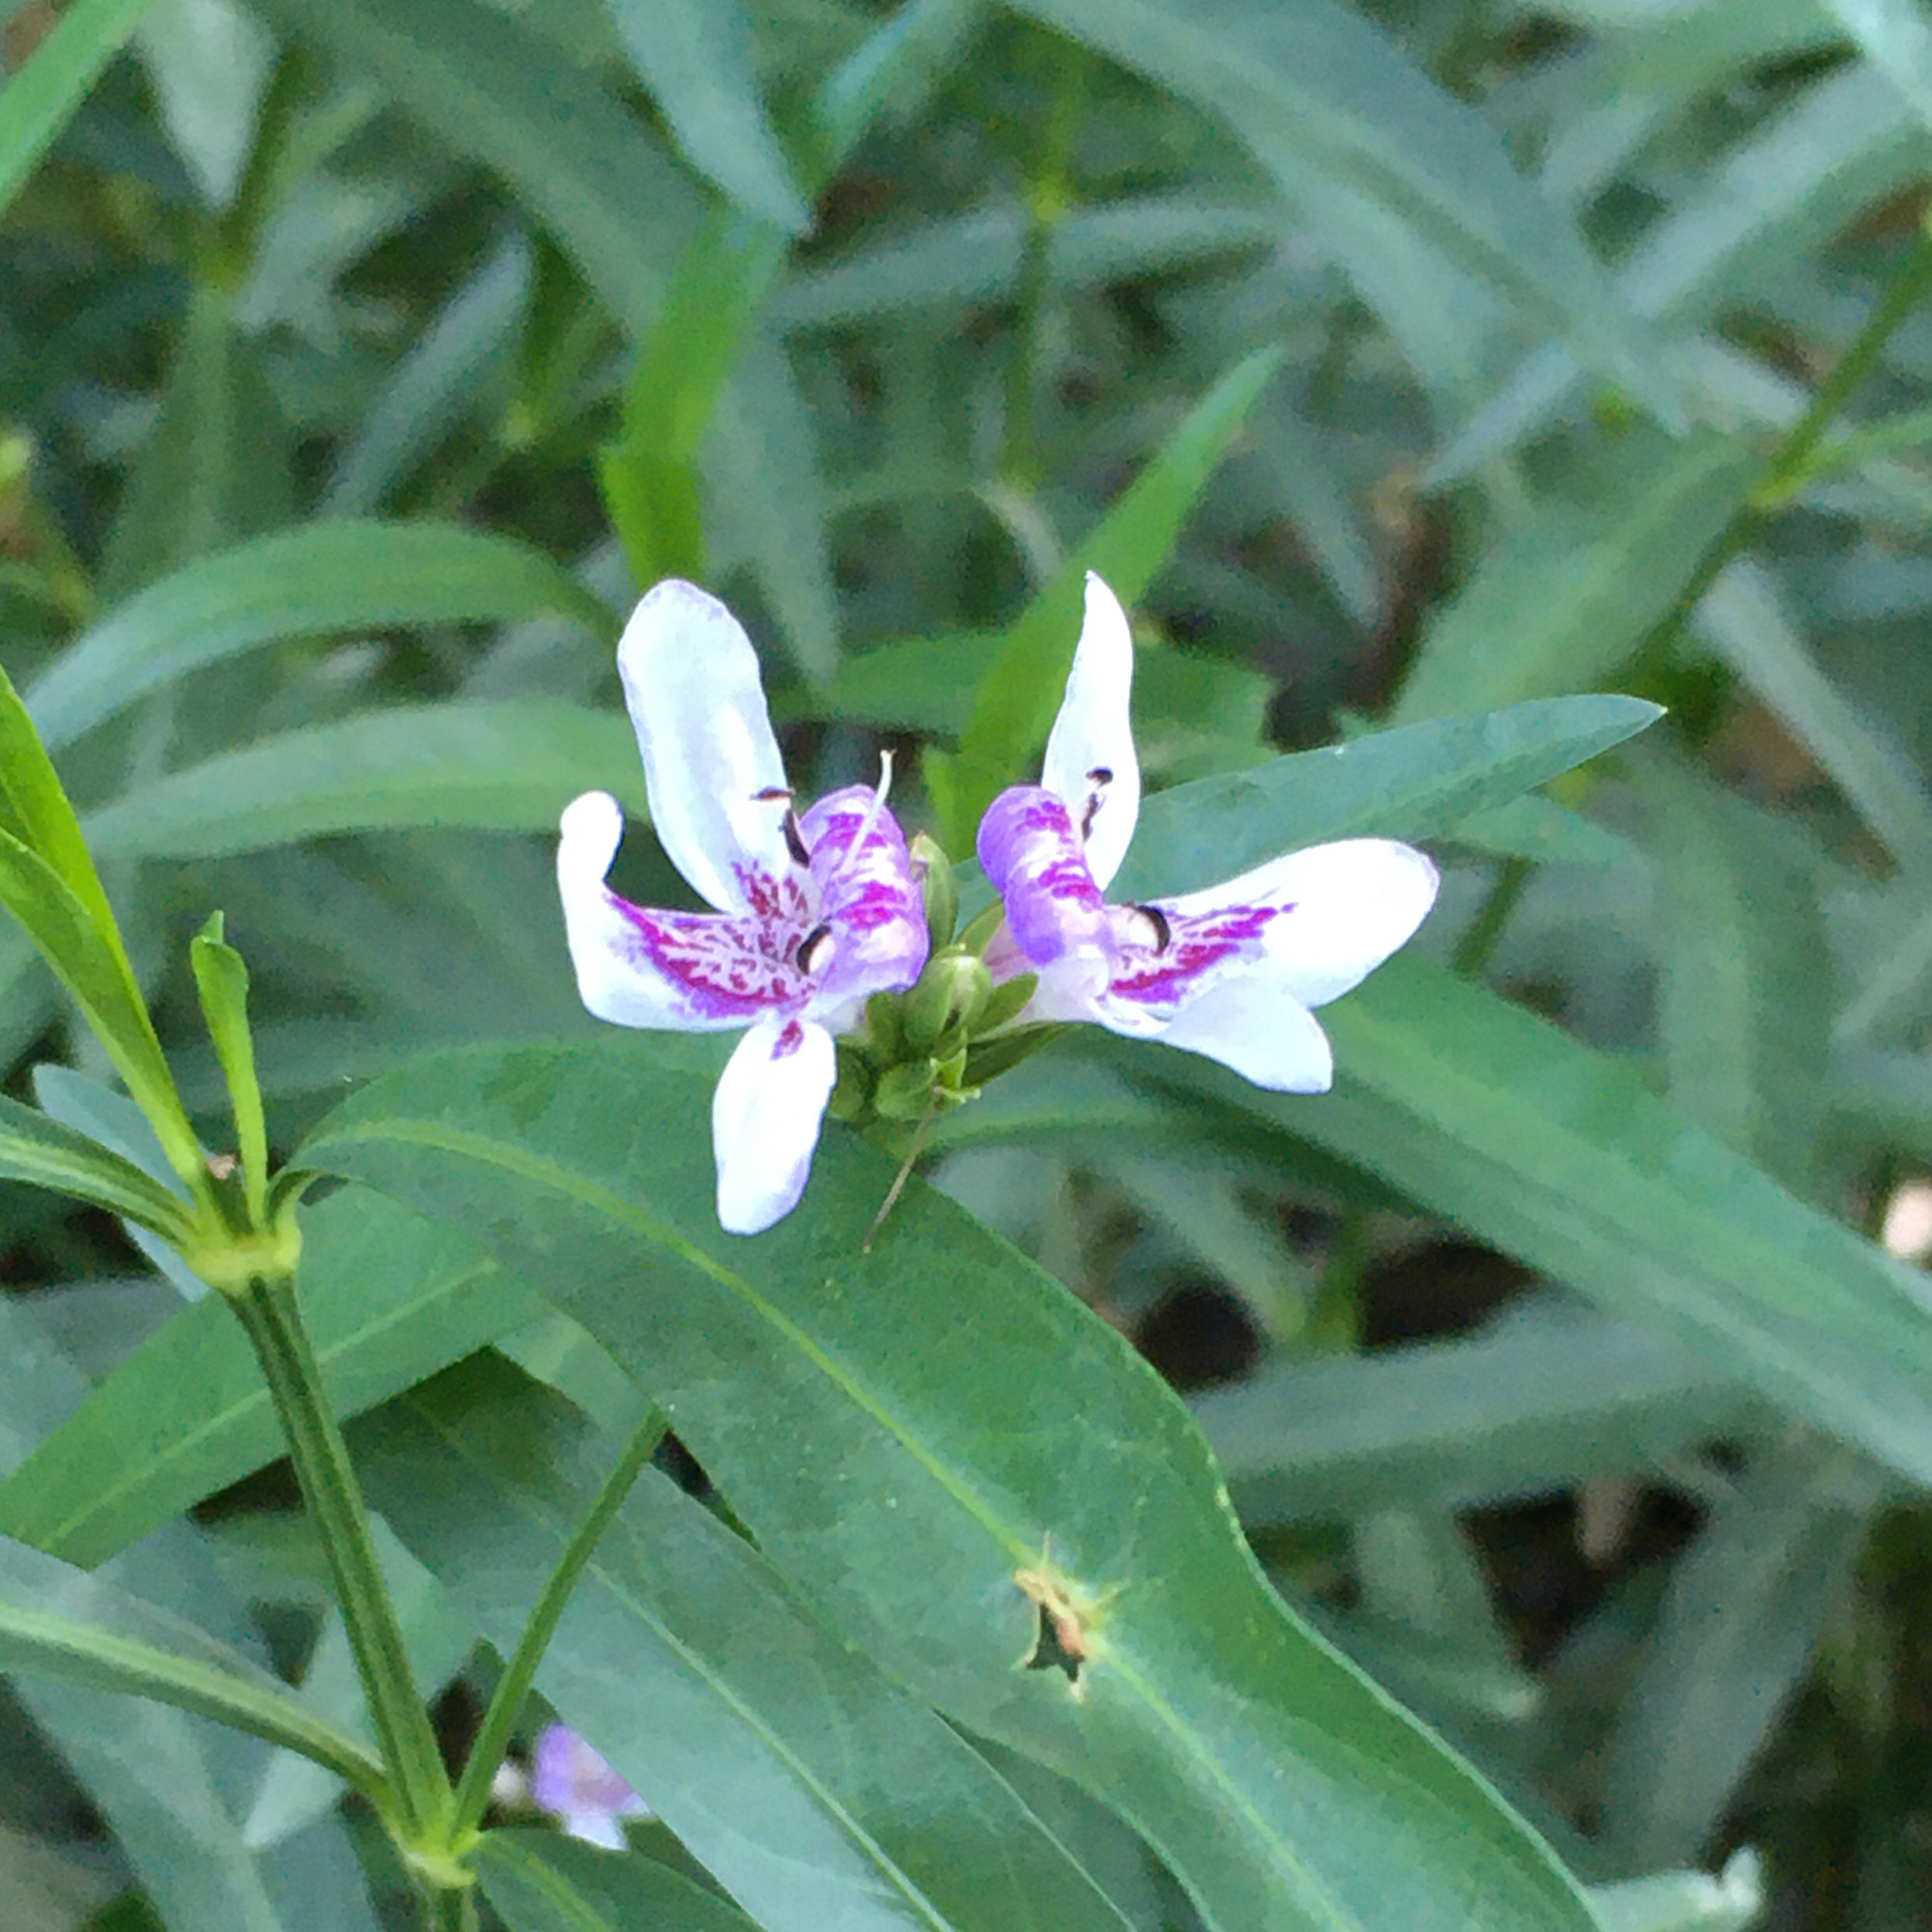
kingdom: Plantae
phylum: Tracheophyta
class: Magnoliopsida
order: Lamiales
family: Acanthaceae
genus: Dianthera
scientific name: Dianthera americana
